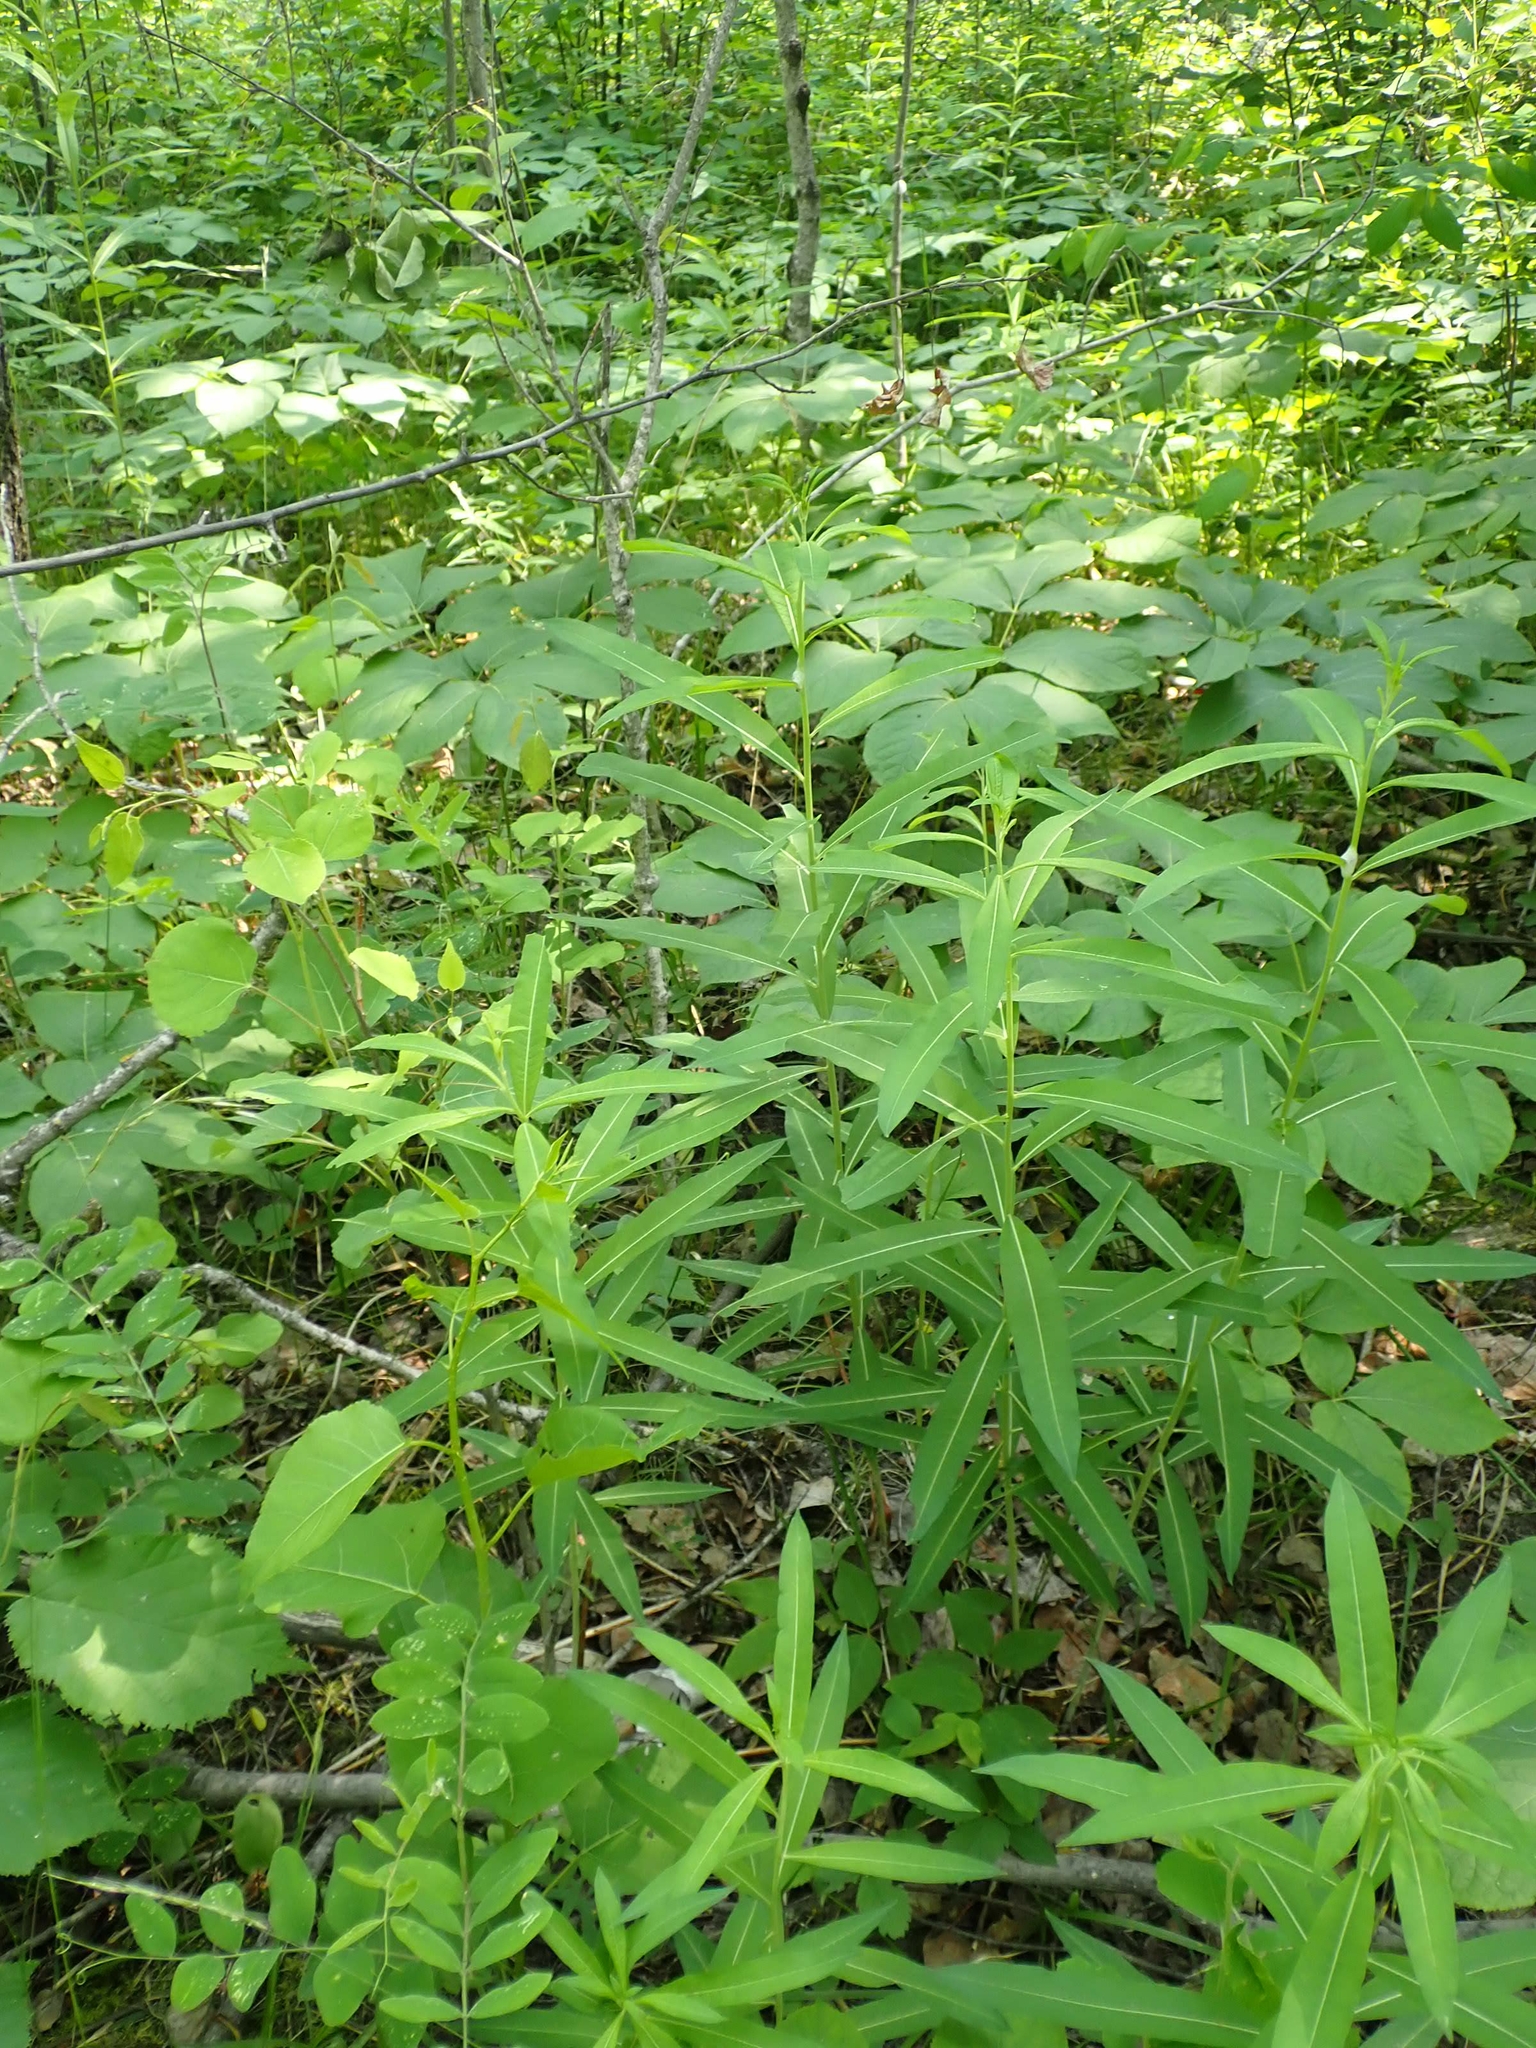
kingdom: Plantae
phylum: Tracheophyta
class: Magnoliopsida
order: Myrtales
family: Onagraceae
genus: Chamaenerion
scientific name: Chamaenerion angustifolium
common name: Fireweed
